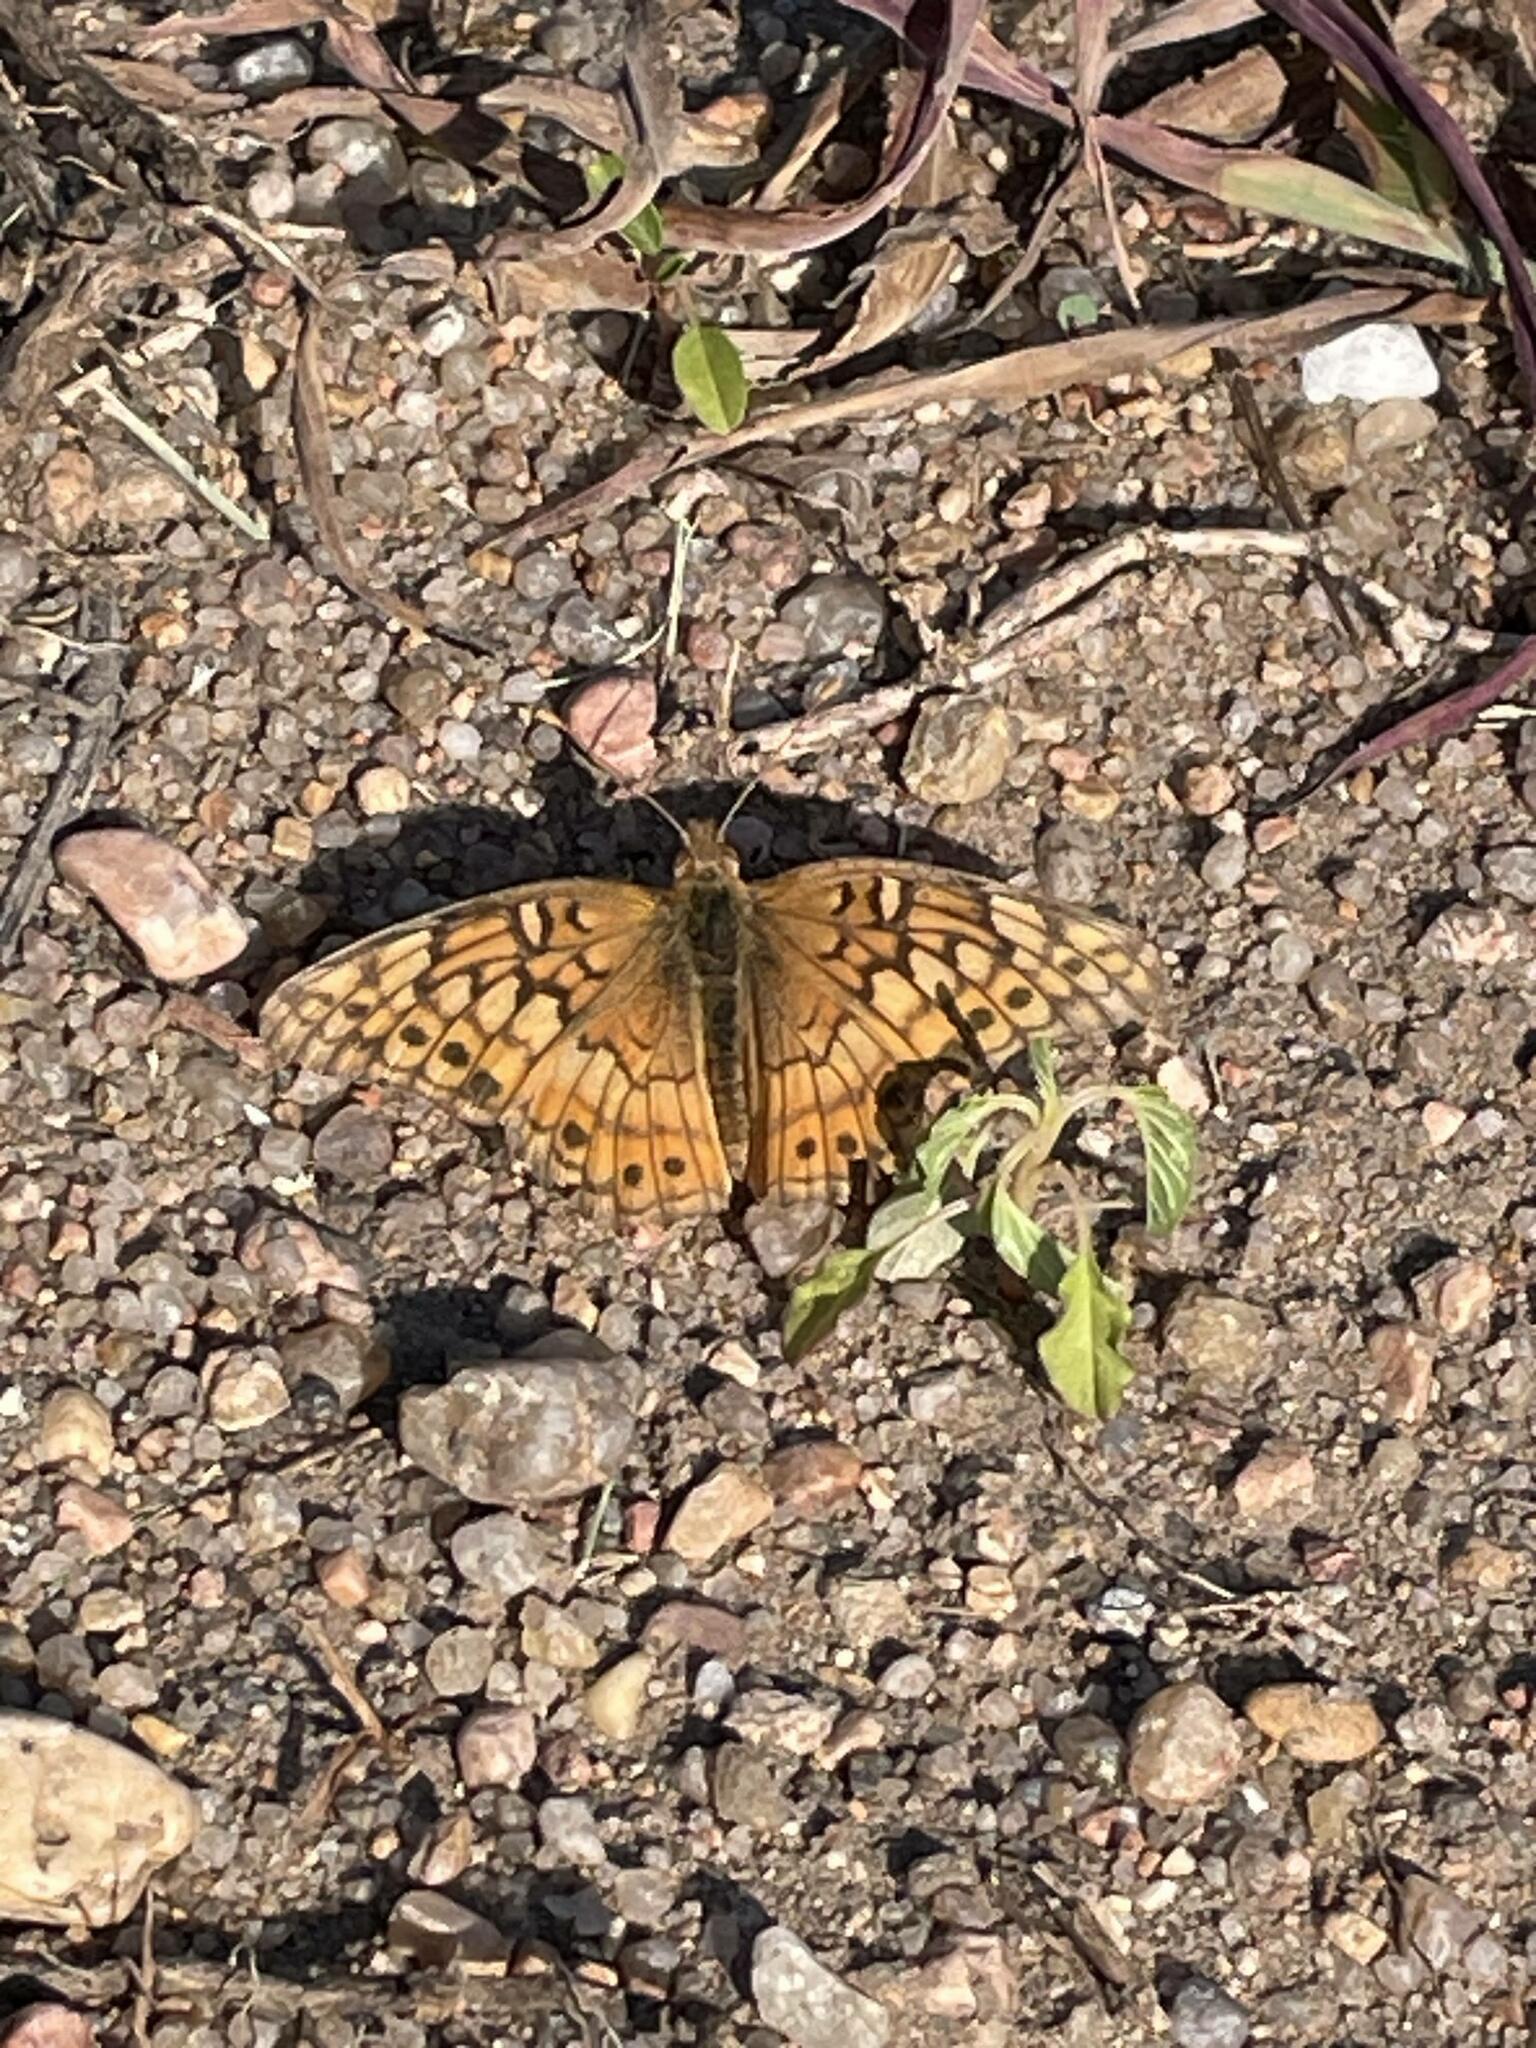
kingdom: Animalia
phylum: Arthropoda
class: Insecta
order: Lepidoptera
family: Nymphalidae
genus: Euptoieta
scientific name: Euptoieta claudia
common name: Variegated fritillary
